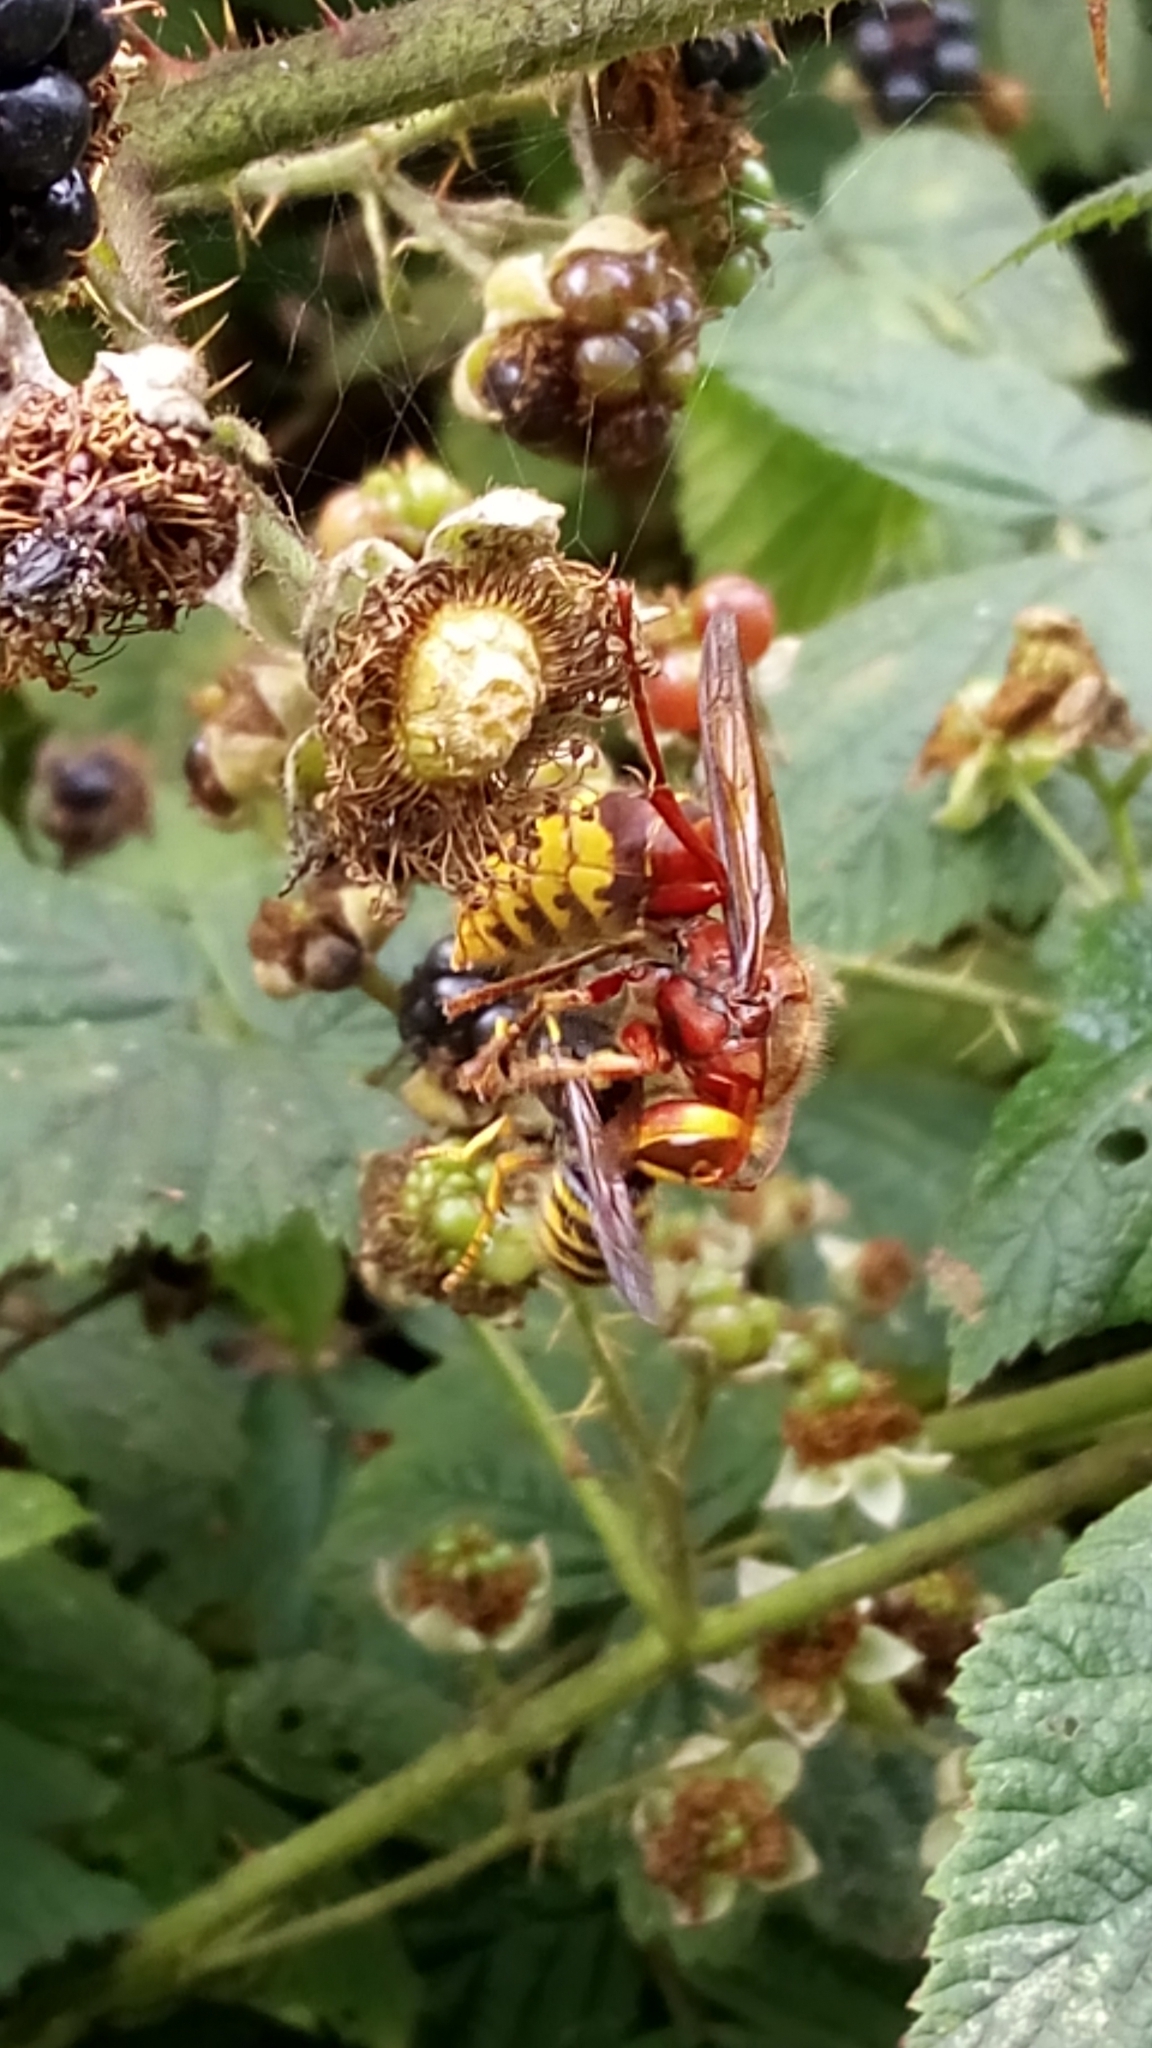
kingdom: Animalia
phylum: Arthropoda
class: Insecta
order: Hymenoptera
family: Vespidae
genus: Vespa
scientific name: Vespa crabro
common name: Hornet
